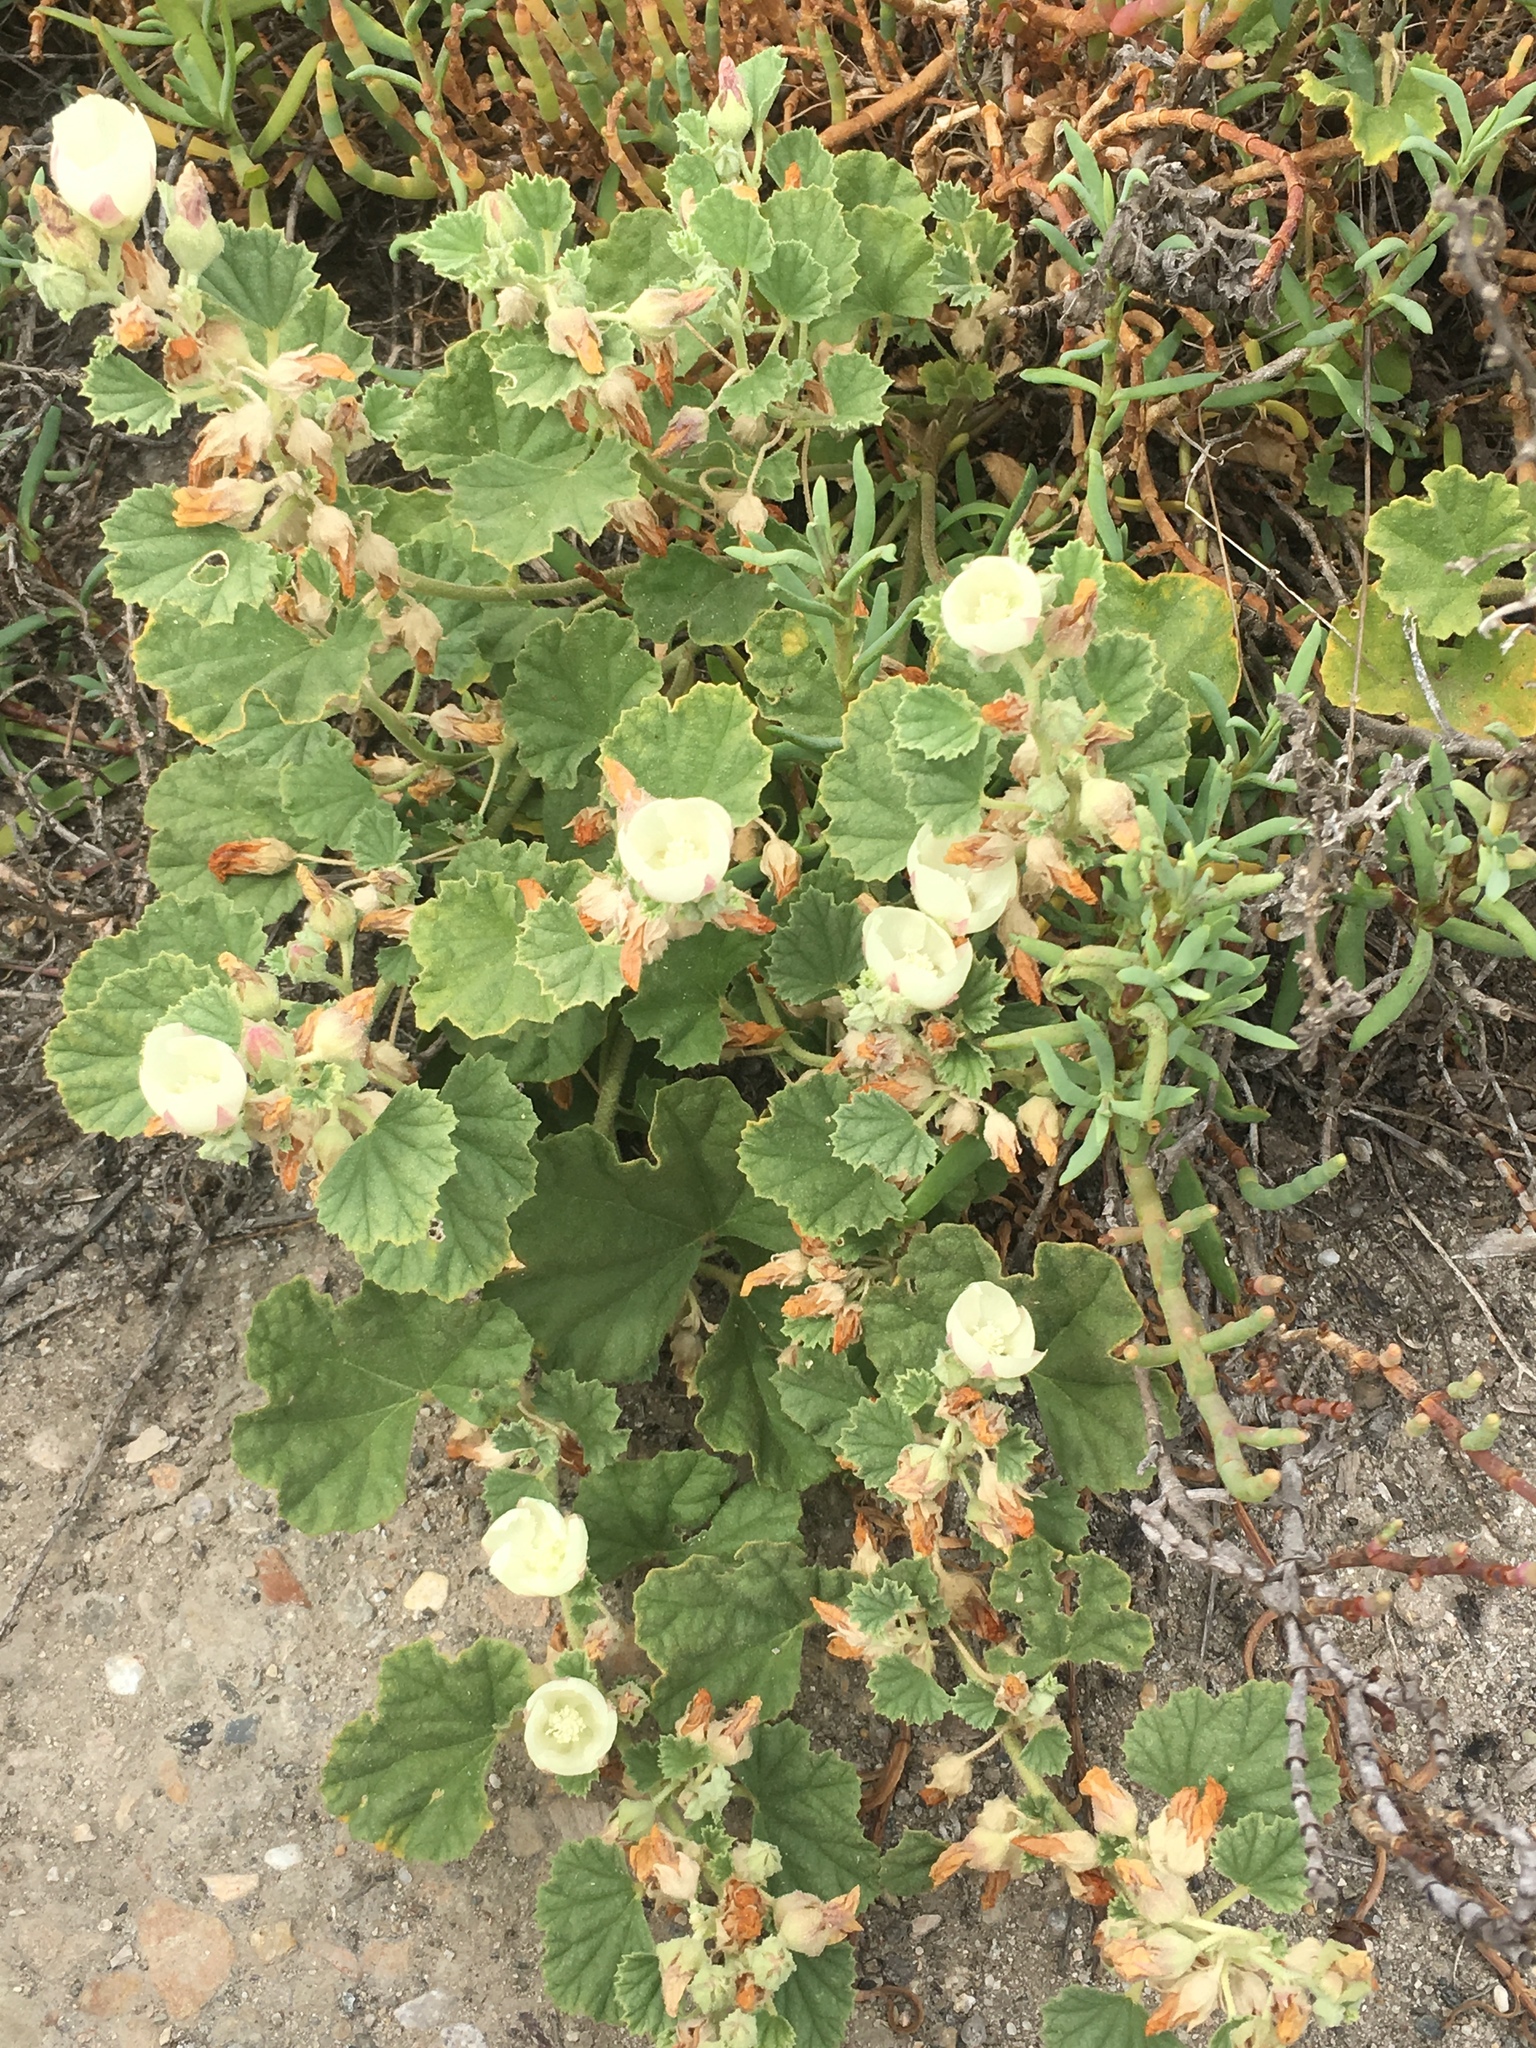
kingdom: Plantae
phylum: Tracheophyta
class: Magnoliopsida
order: Malvales
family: Malvaceae
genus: Malvella
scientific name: Malvella leprosa
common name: Alkali-mallow
